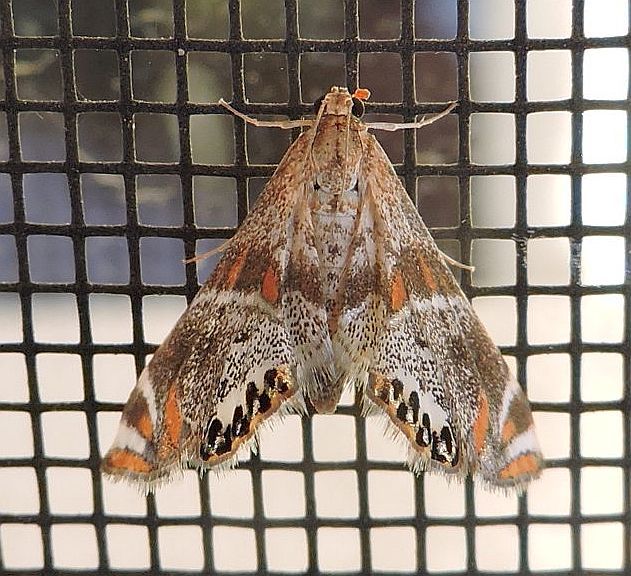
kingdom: Animalia
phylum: Arthropoda
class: Insecta
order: Lepidoptera
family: Crambidae
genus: Petrophila
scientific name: Petrophila jaliscalis
